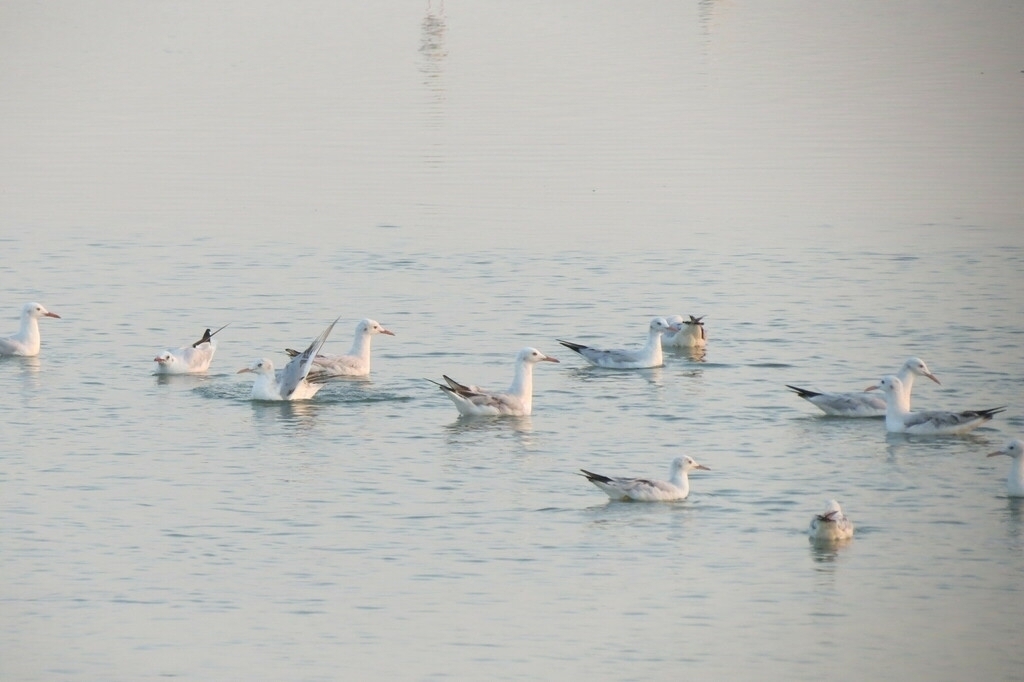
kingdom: Animalia
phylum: Chordata
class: Aves
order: Charadriiformes
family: Laridae
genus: Chroicocephalus
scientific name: Chroicocephalus ridibundus
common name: Black-headed gull
